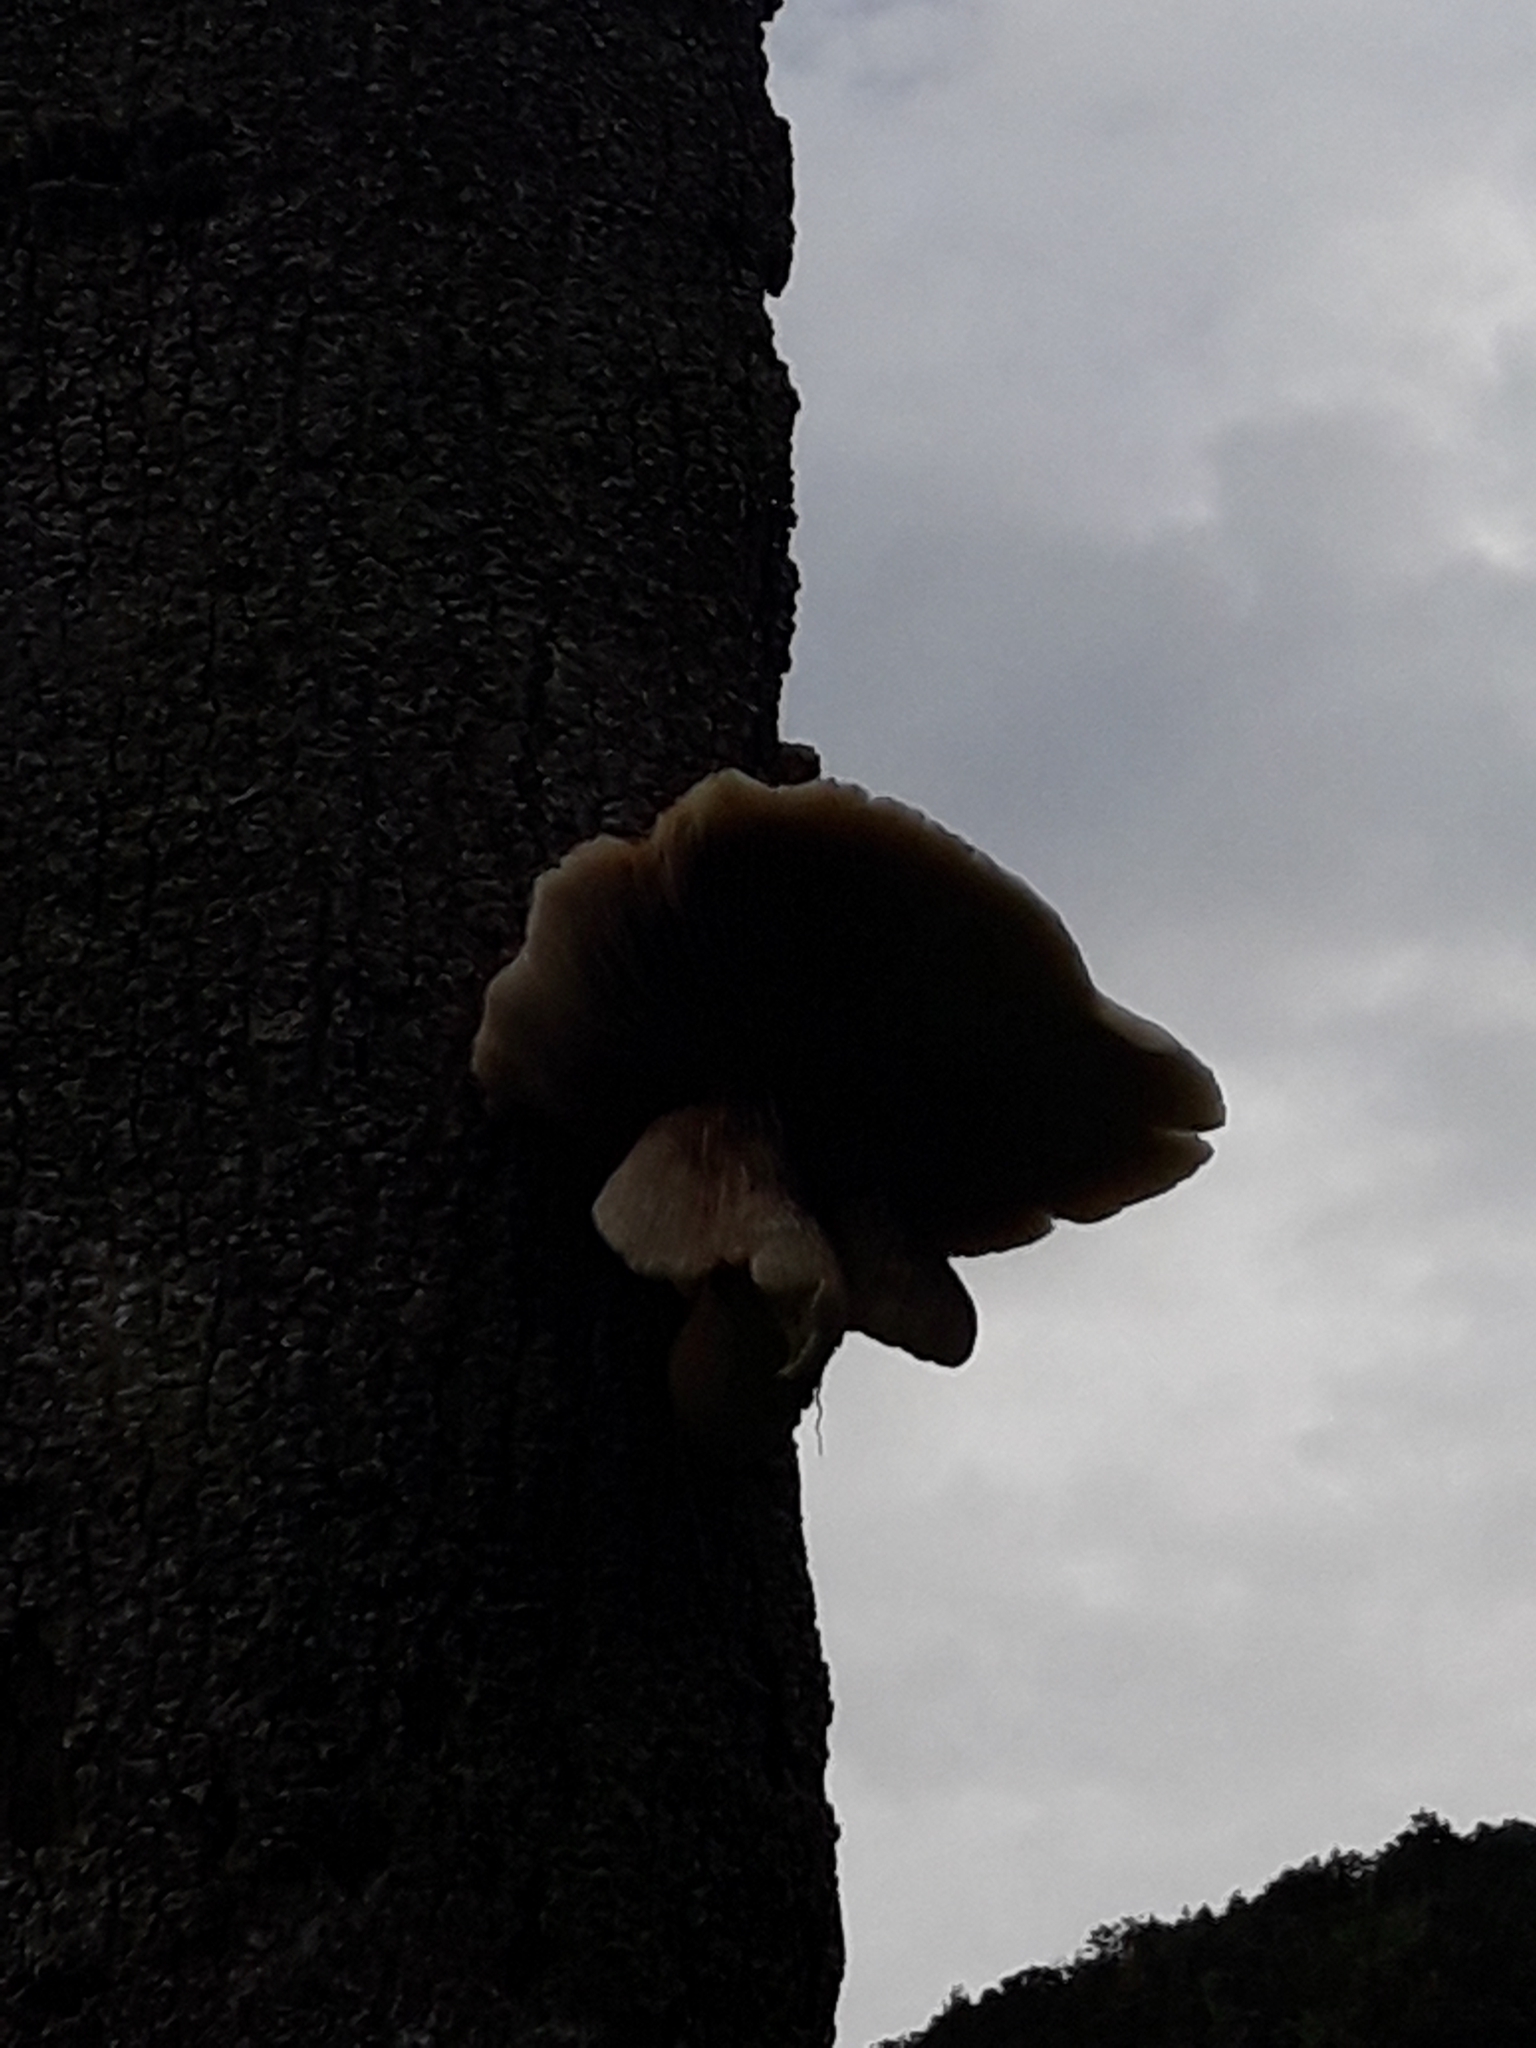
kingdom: Fungi
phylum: Basidiomycota
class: Agaricomycetes
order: Agaricales
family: Tubariaceae
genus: Cyclocybe
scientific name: Cyclocybe parasitica
